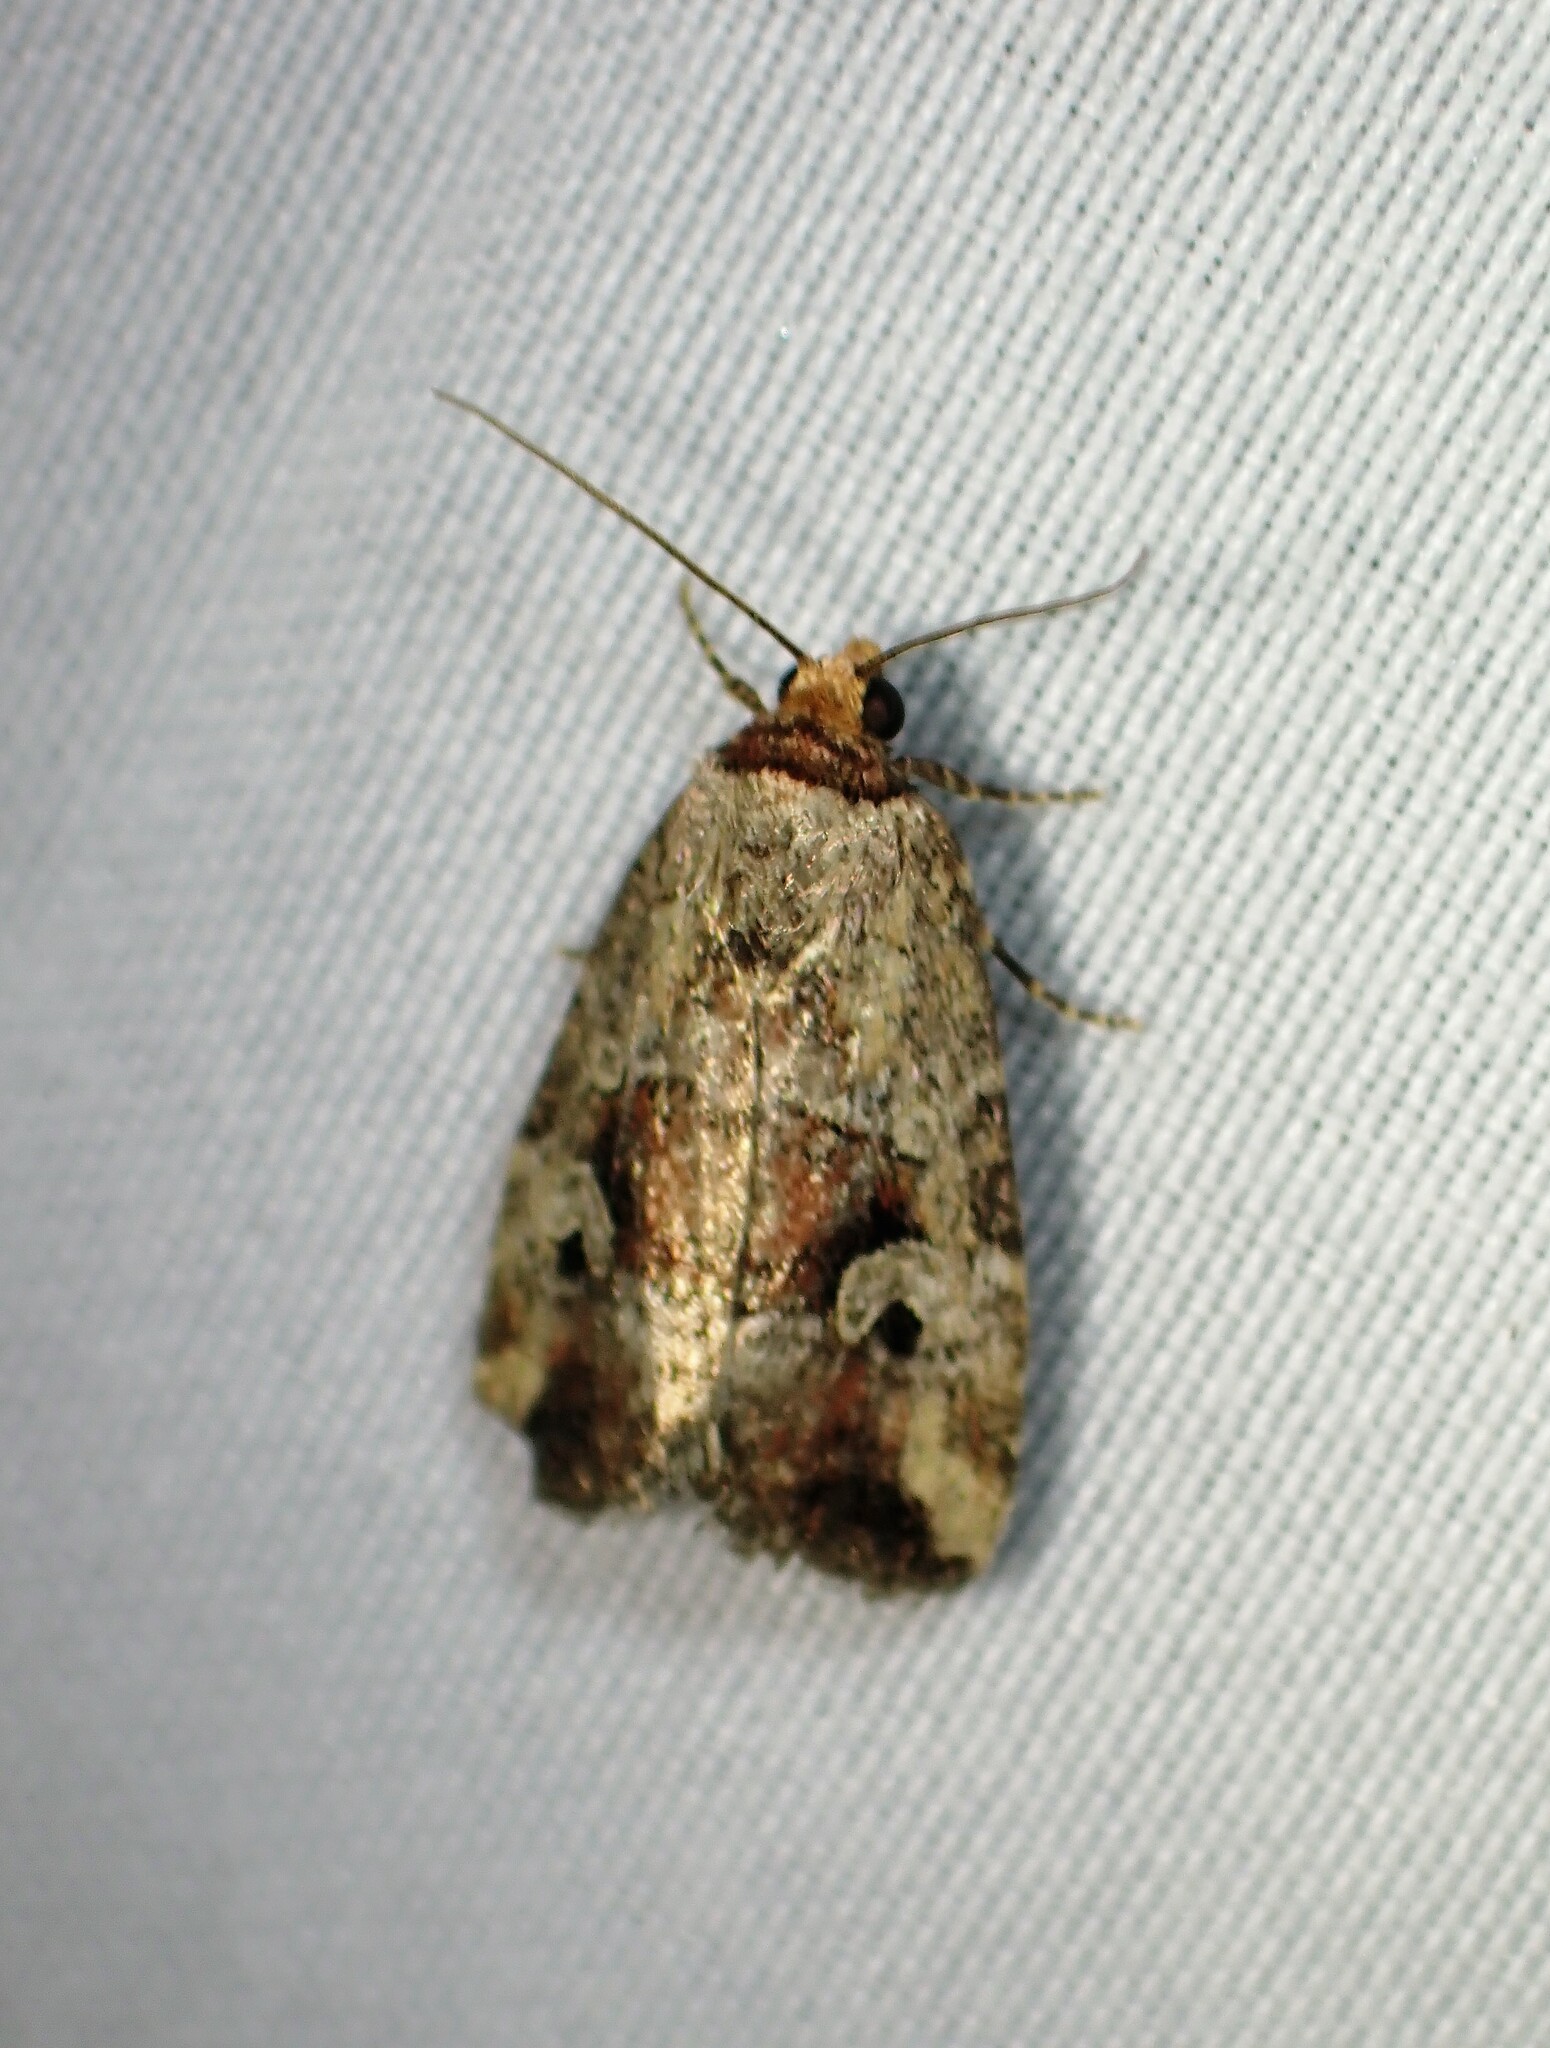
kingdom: Animalia
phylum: Arthropoda
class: Insecta
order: Lepidoptera
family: Noctuidae
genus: Elaphria
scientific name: Elaphria alapallida
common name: Pale-winged midget
